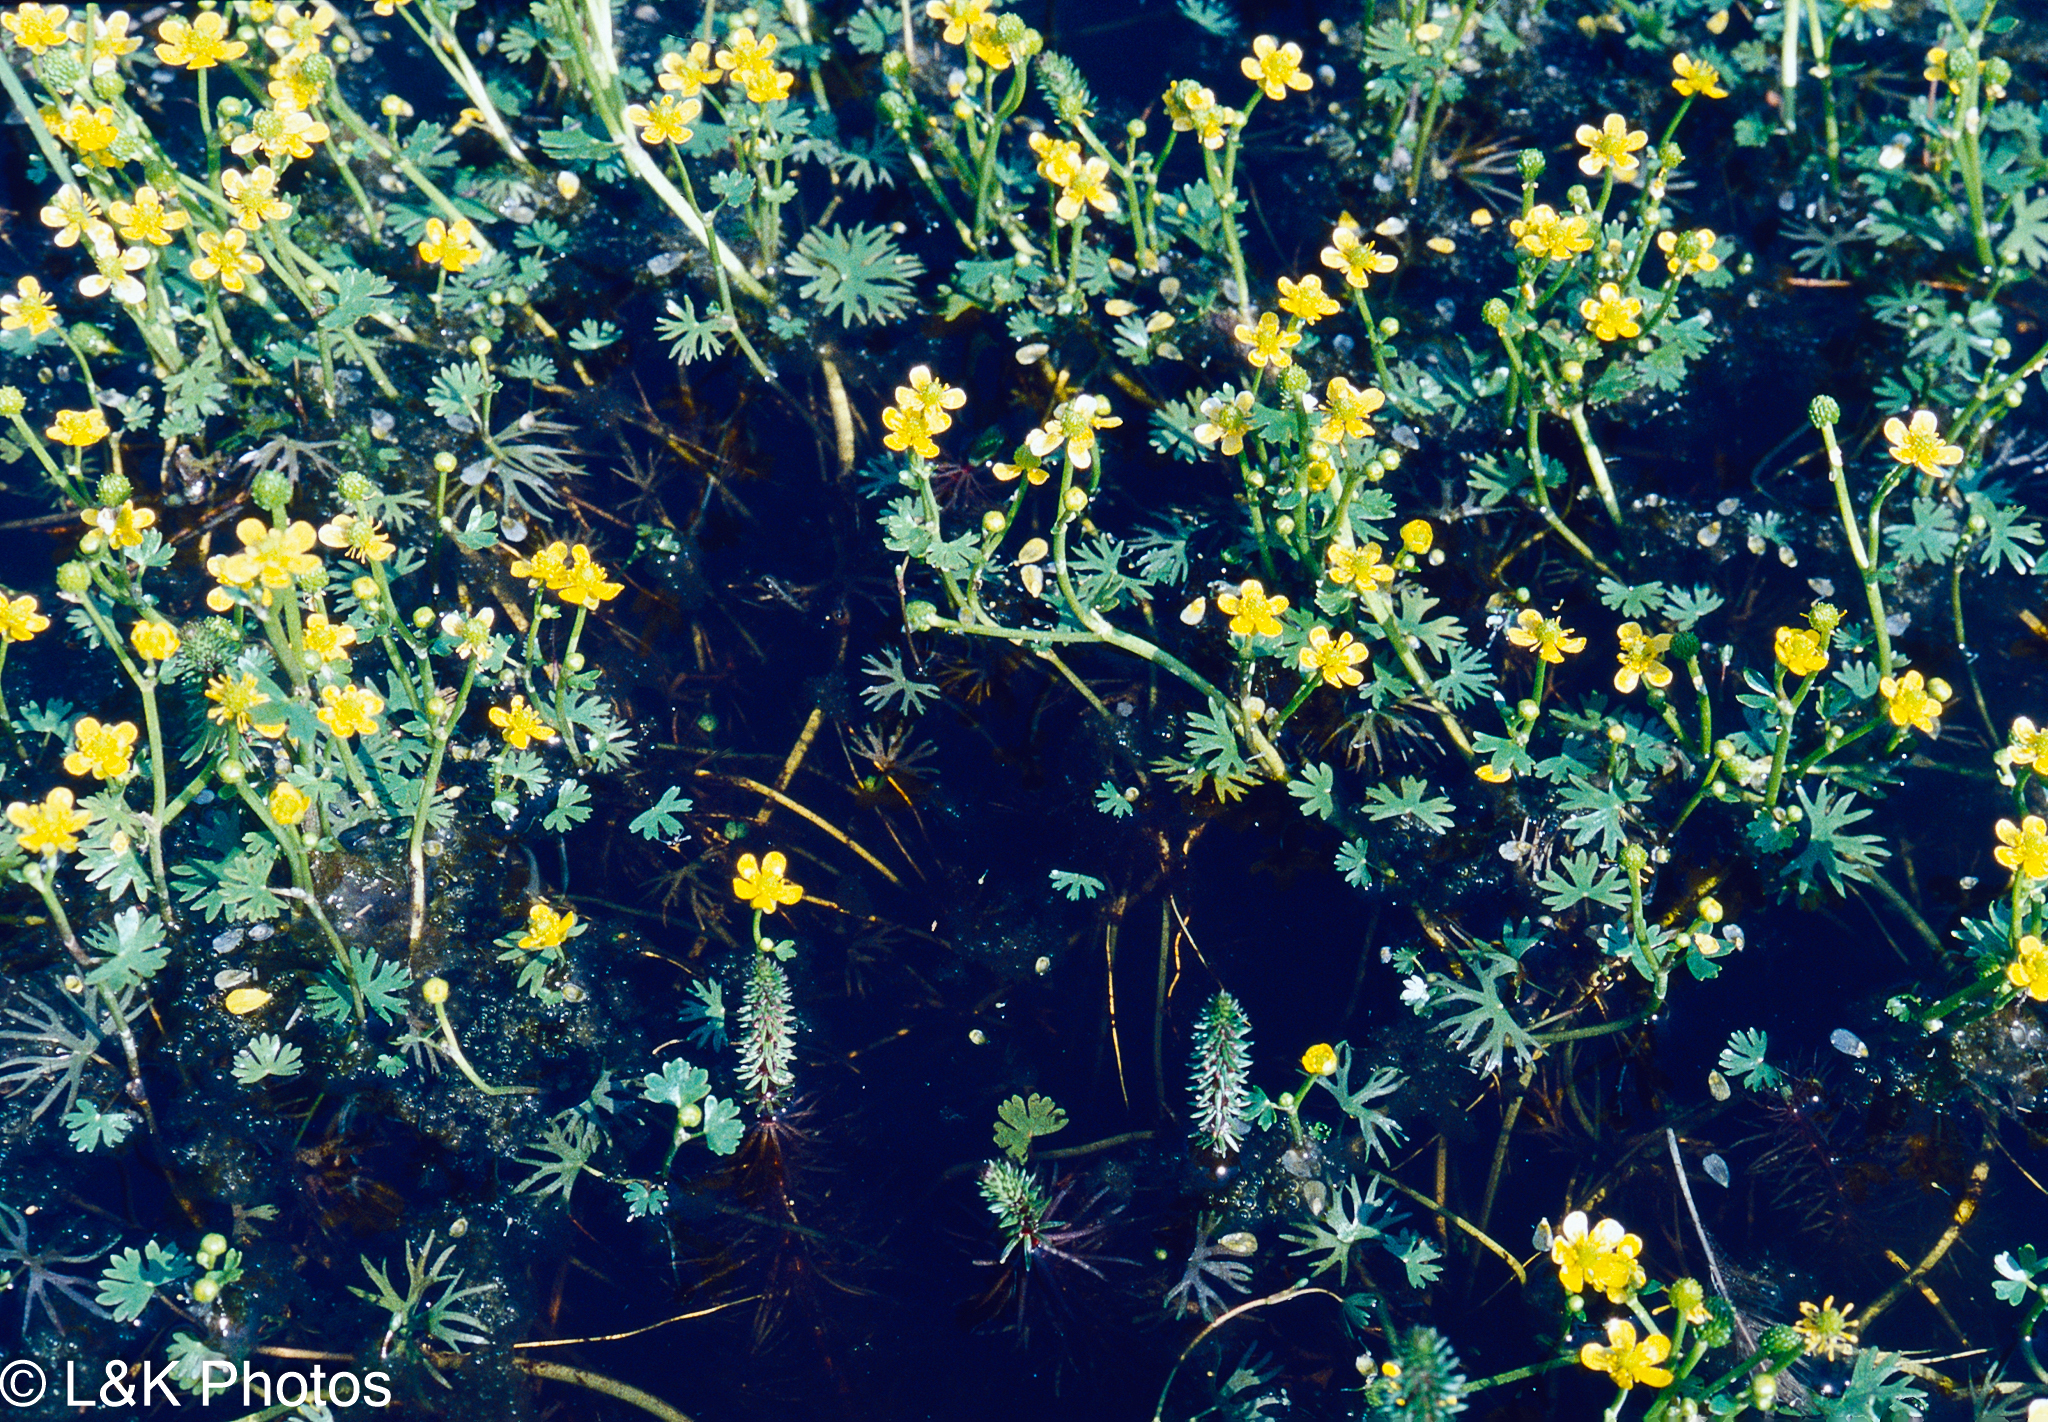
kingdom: Plantae
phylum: Tracheophyta
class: Magnoliopsida
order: Ranunculales
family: Ranunculaceae
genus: Ranunculus
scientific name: Ranunculus gmelinii
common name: Gmelin's buttercup
